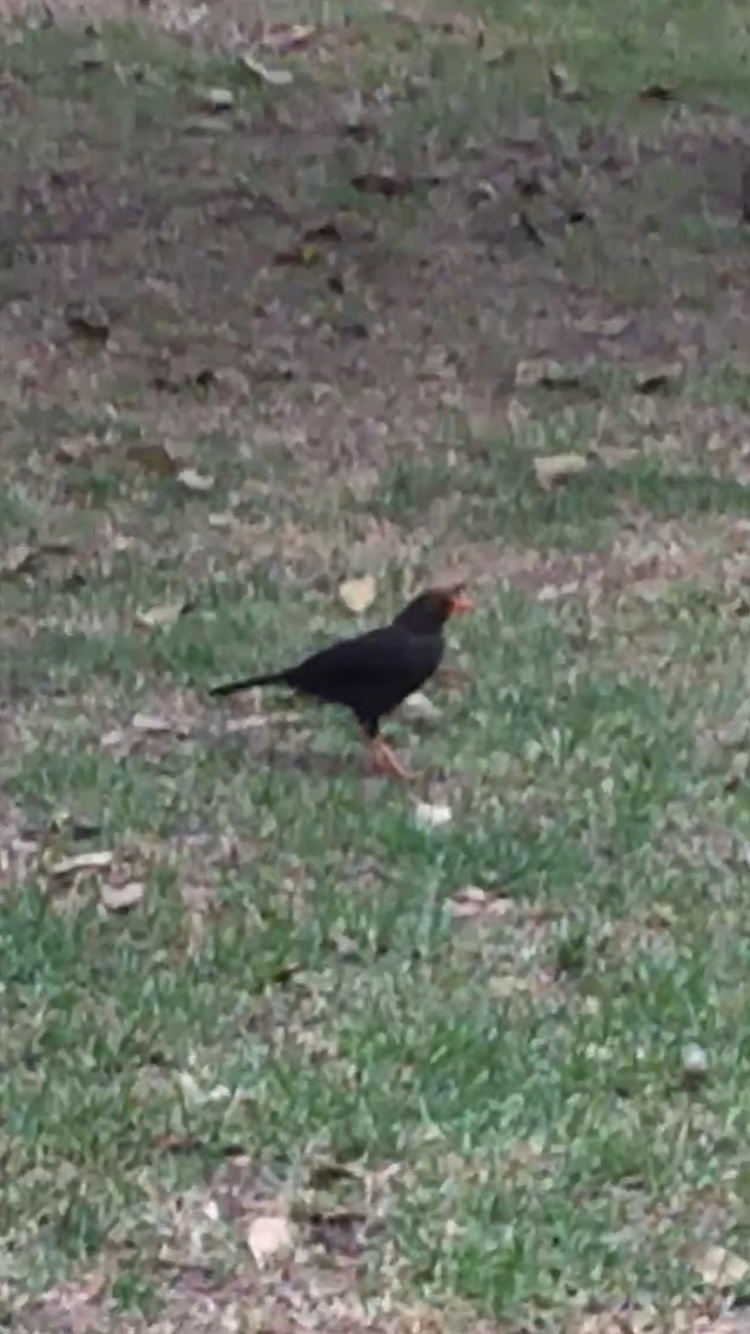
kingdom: Animalia
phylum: Chordata
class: Aves
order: Passeriformes
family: Turdidae
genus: Turdus
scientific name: Turdus fuscater
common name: Great thrush
